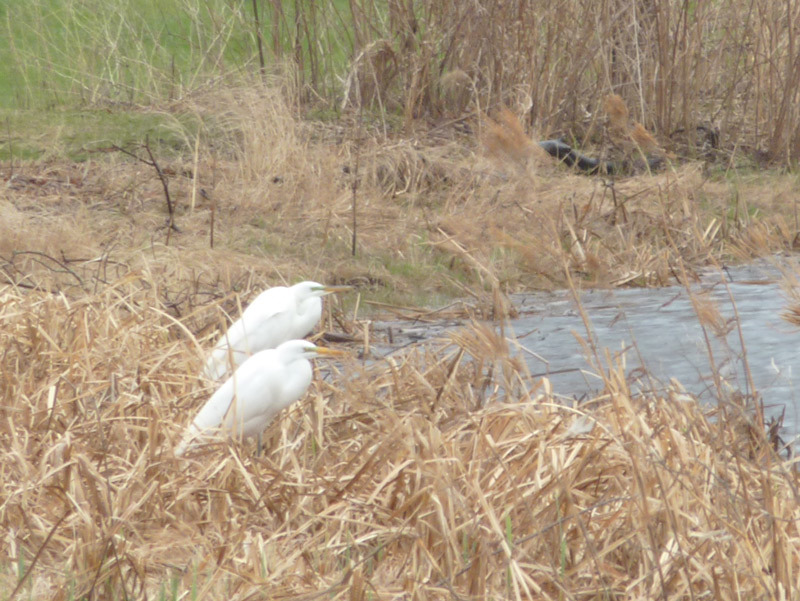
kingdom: Animalia
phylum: Chordata
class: Aves
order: Pelecaniformes
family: Ardeidae
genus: Ardea
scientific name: Ardea alba
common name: Great egret
